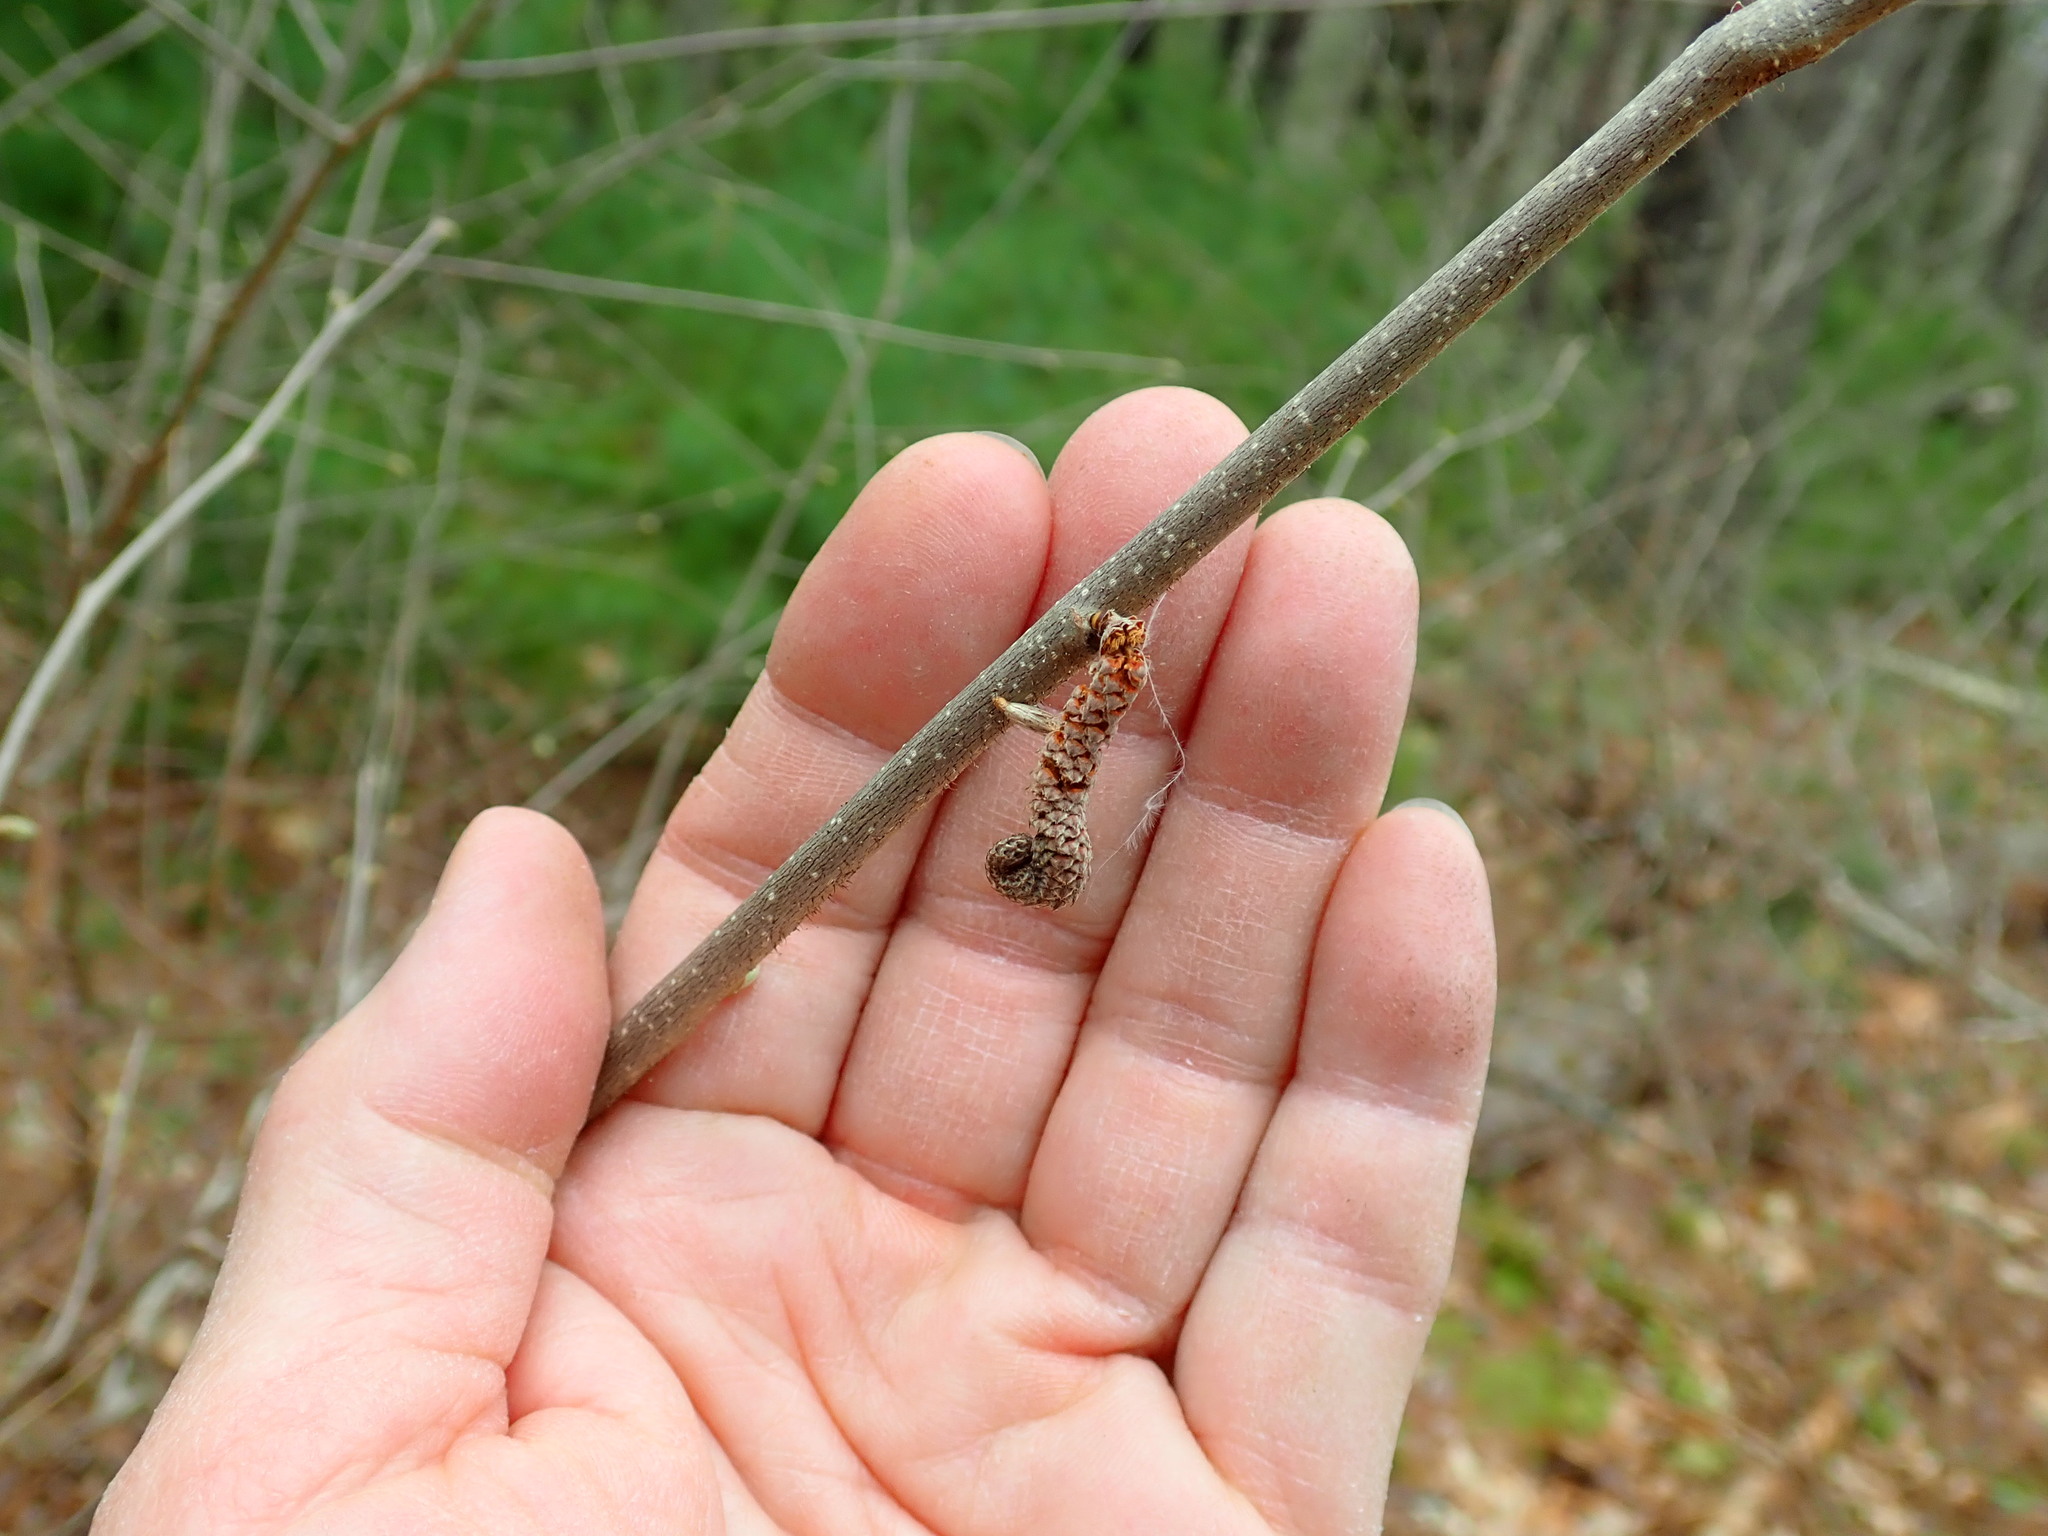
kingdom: Plantae
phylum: Tracheophyta
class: Magnoliopsida
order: Fagales
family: Betulaceae
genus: Corylus
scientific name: Corylus americana
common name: American hazel
